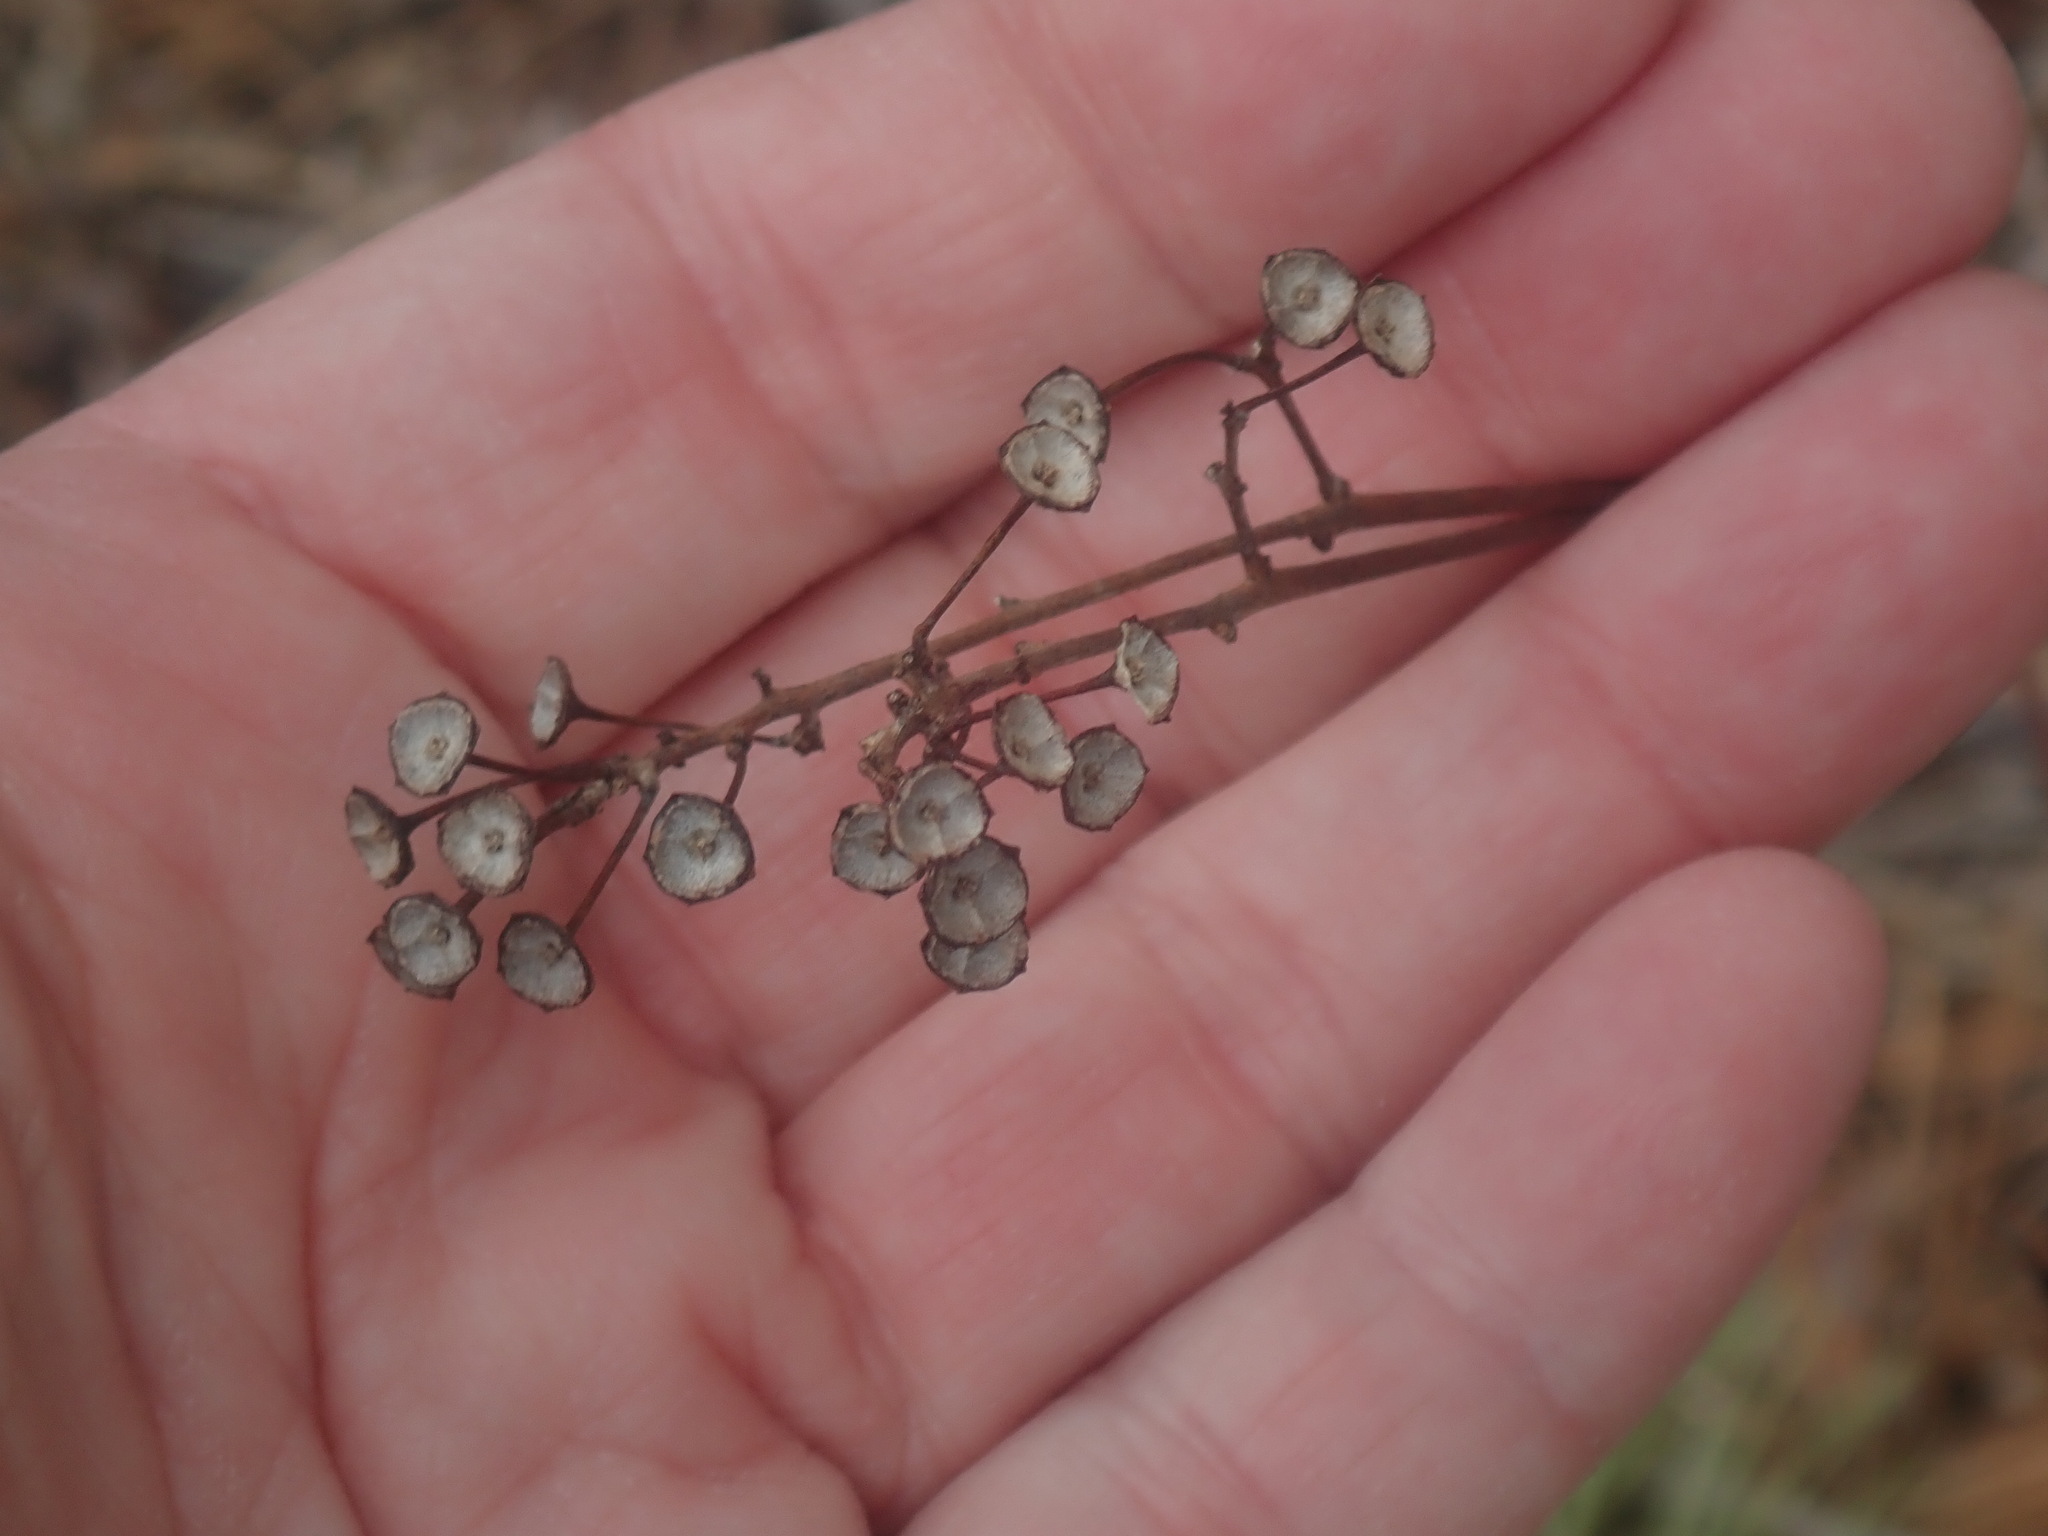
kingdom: Plantae
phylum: Tracheophyta
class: Magnoliopsida
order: Rosales
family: Rhamnaceae
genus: Ceanothus
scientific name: Ceanothus americanus
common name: Redroot
